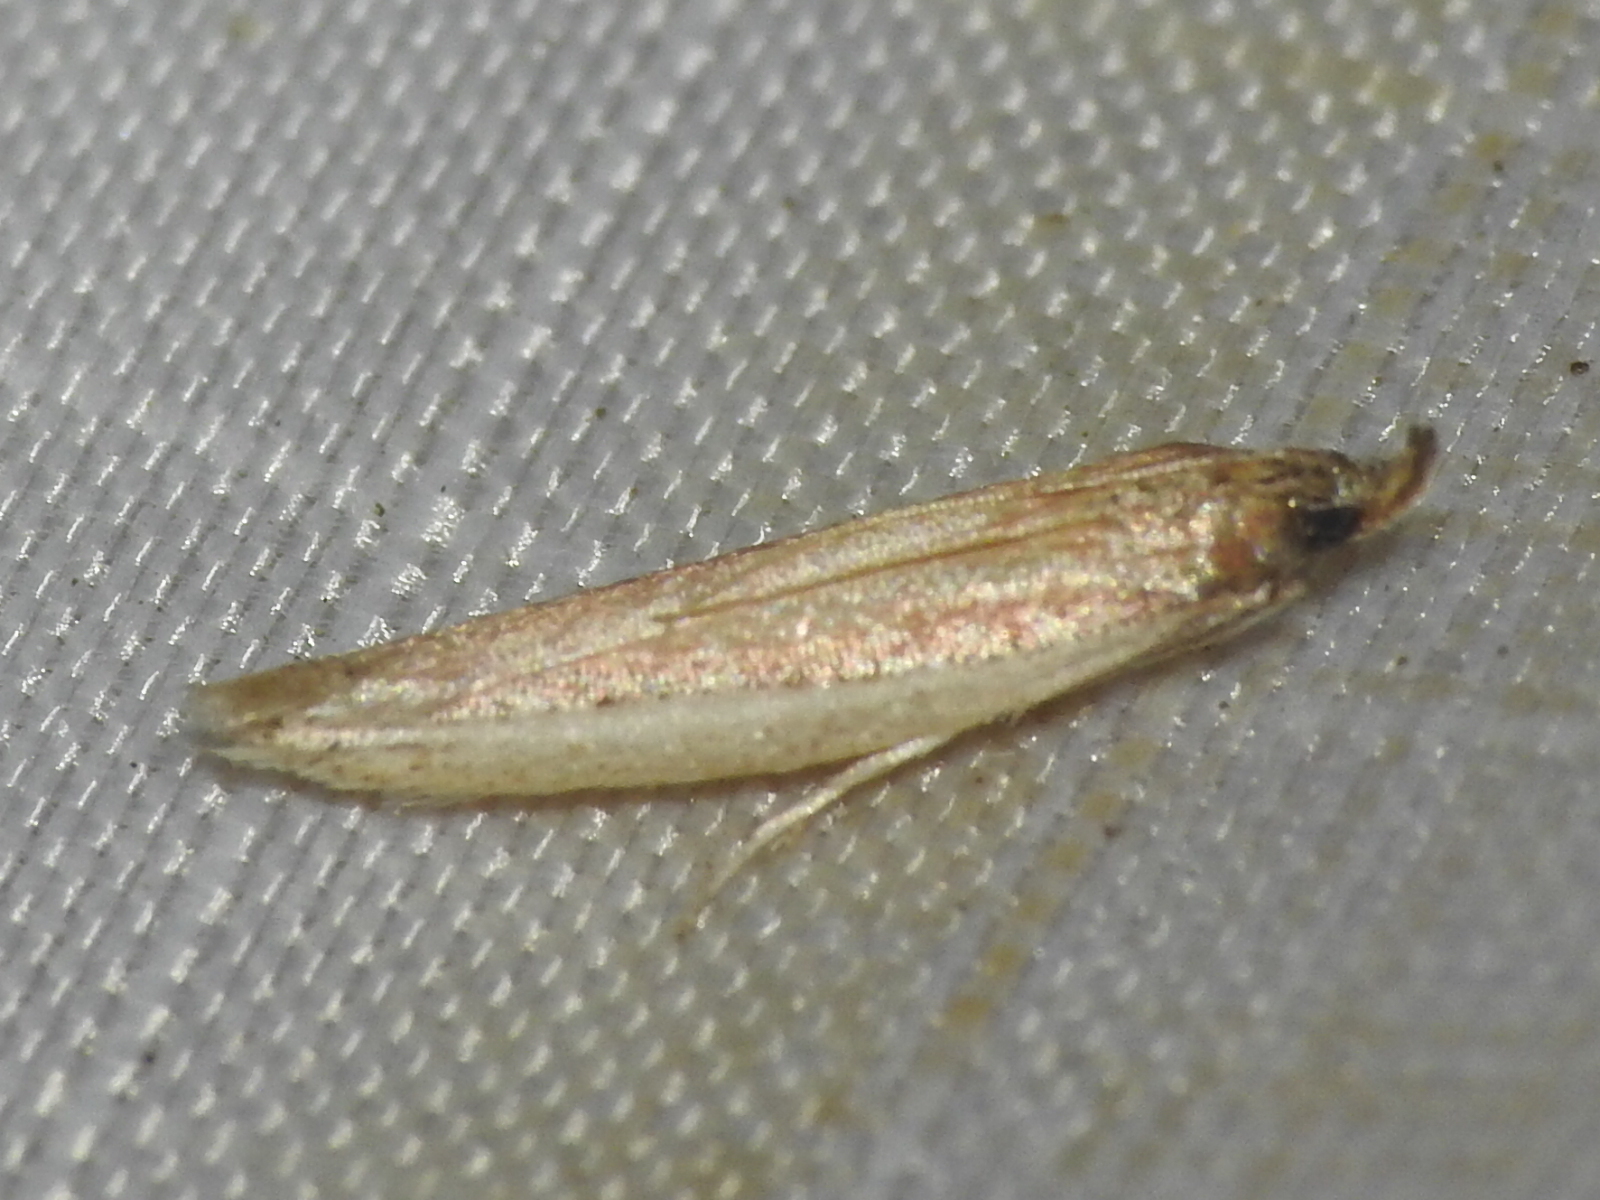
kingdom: Animalia
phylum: Arthropoda
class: Insecta
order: Lepidoptera
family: Pyralidae
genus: Tampa
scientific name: Tampa dimediatella
